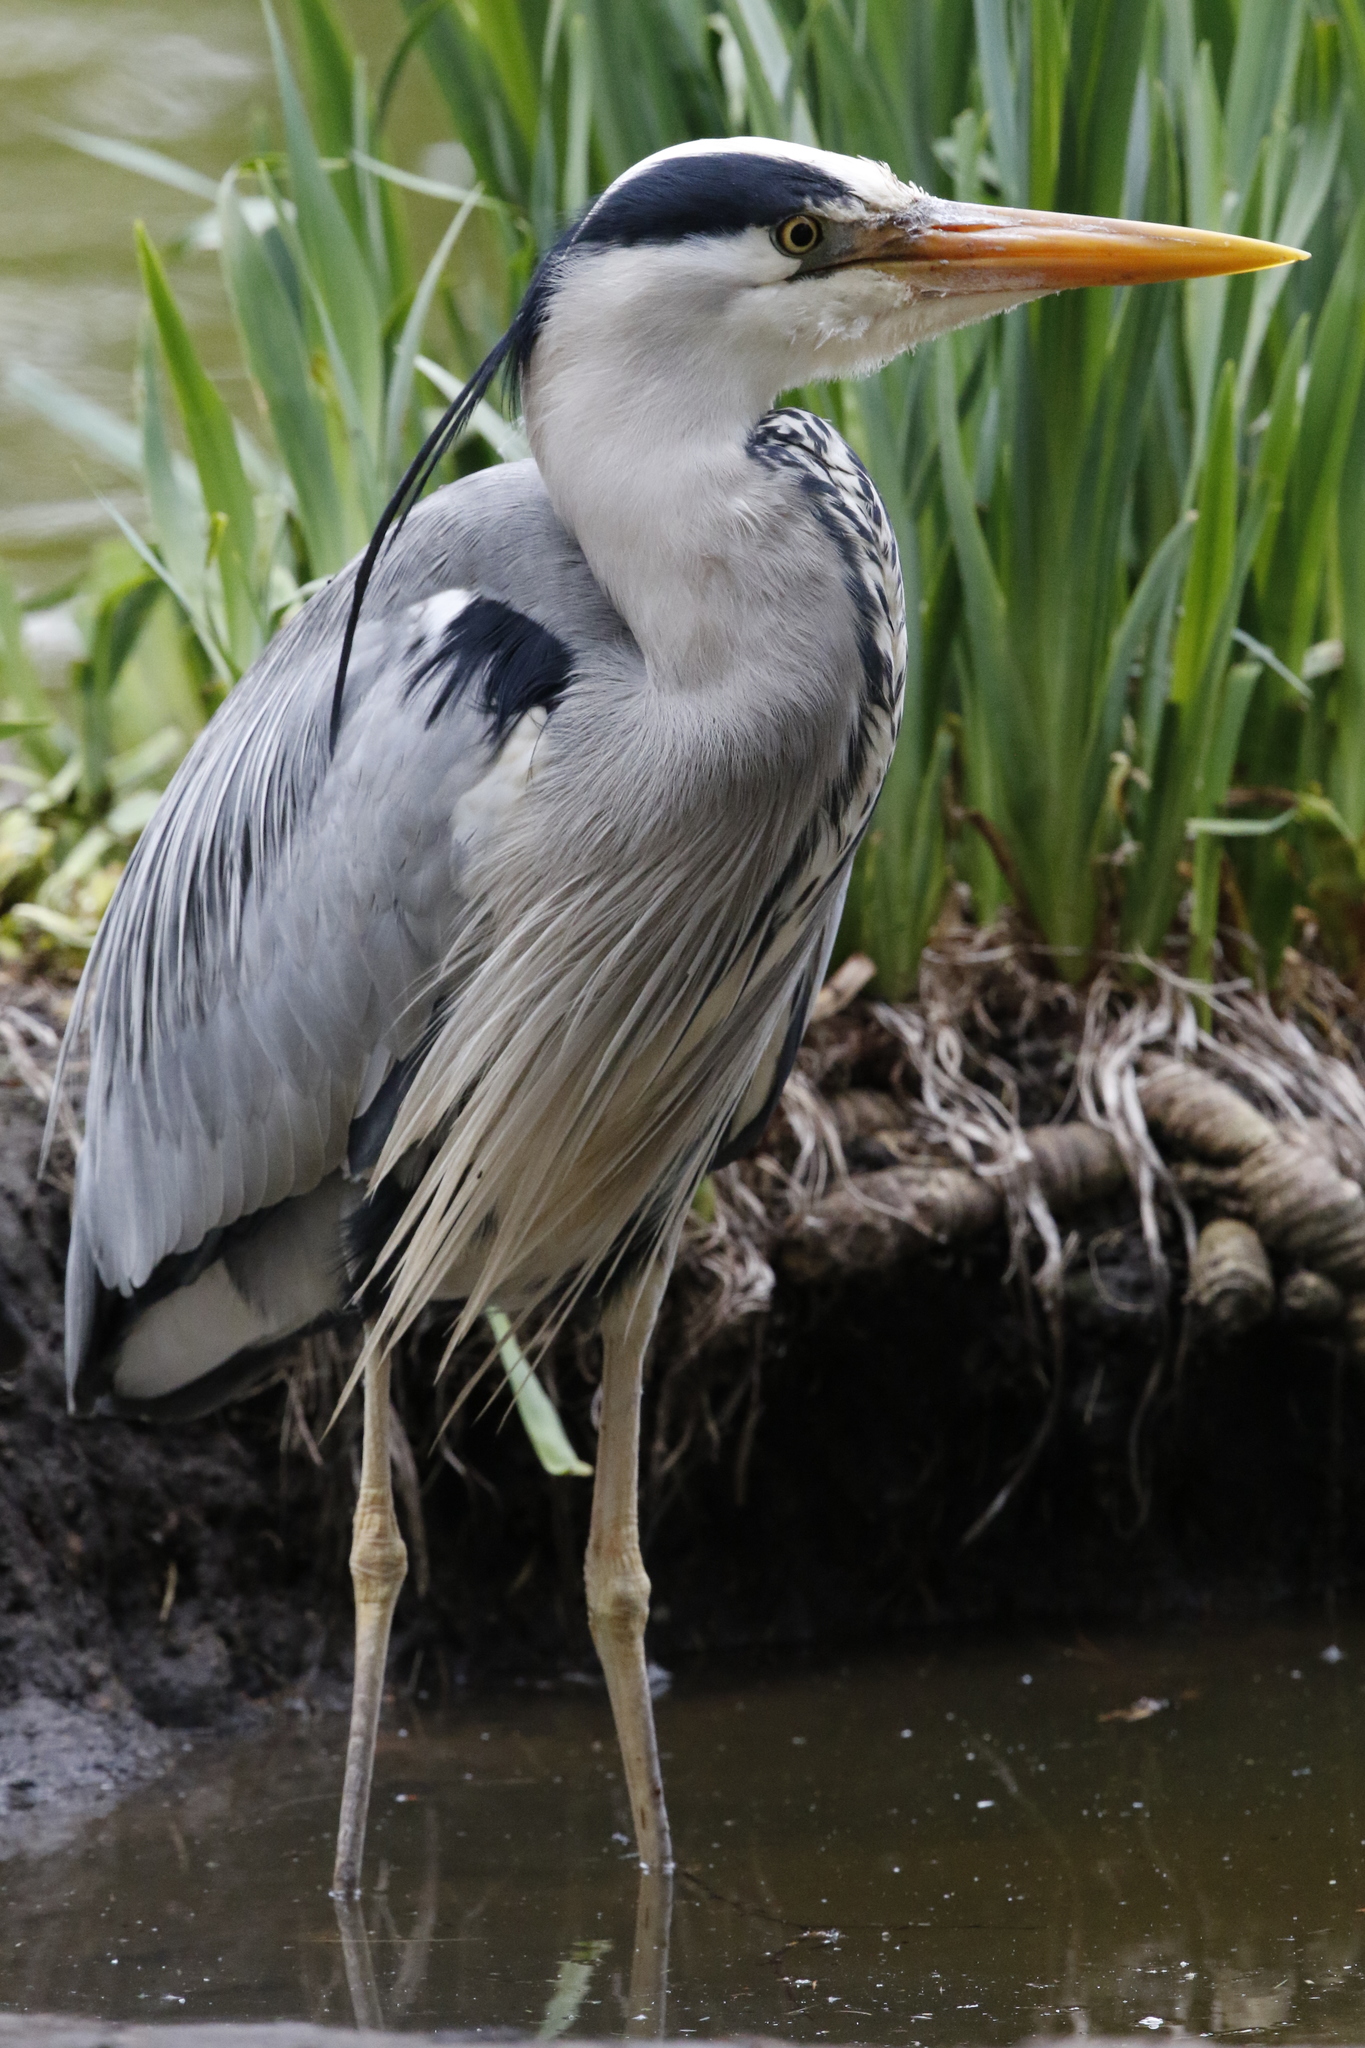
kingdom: Animalia
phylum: Chordata
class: Aves
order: Pelecaniformes
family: Ardeidae
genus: Ardea
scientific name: Ardea cinerea
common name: Grey heron
